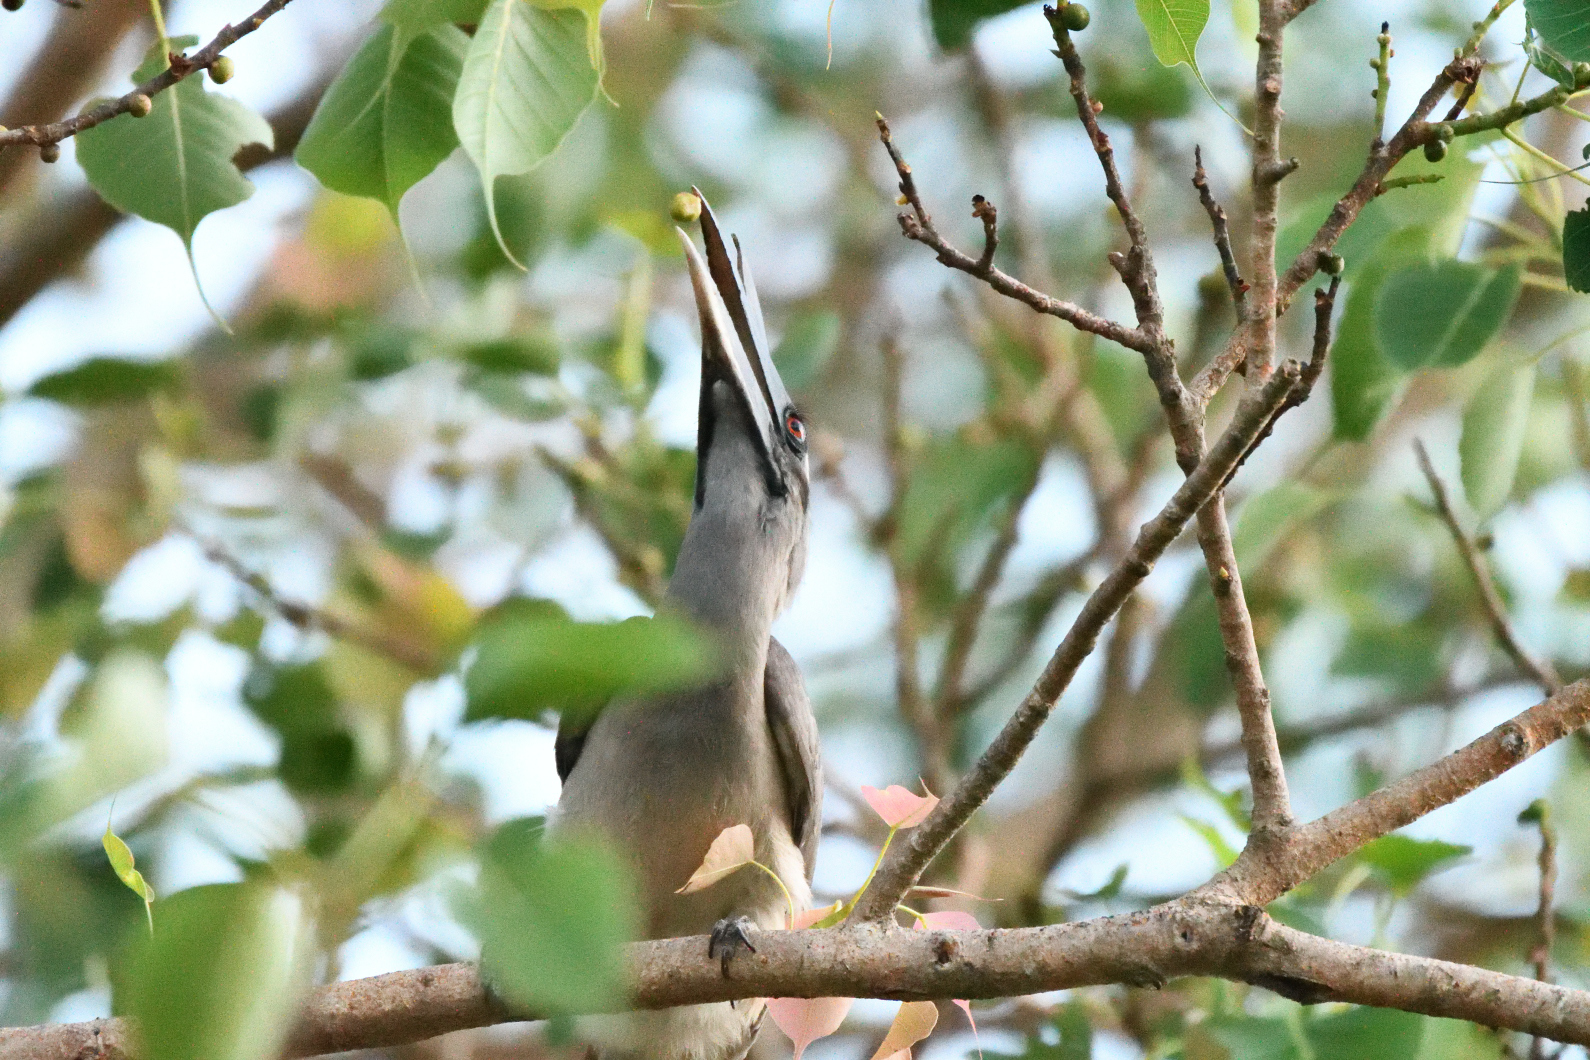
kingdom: Animalia
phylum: Chordata
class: Aves
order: Bucerotiformes
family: Bucerotidae
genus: Ocyceros
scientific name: Ocyceros birostris
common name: Indian grey hornbill
